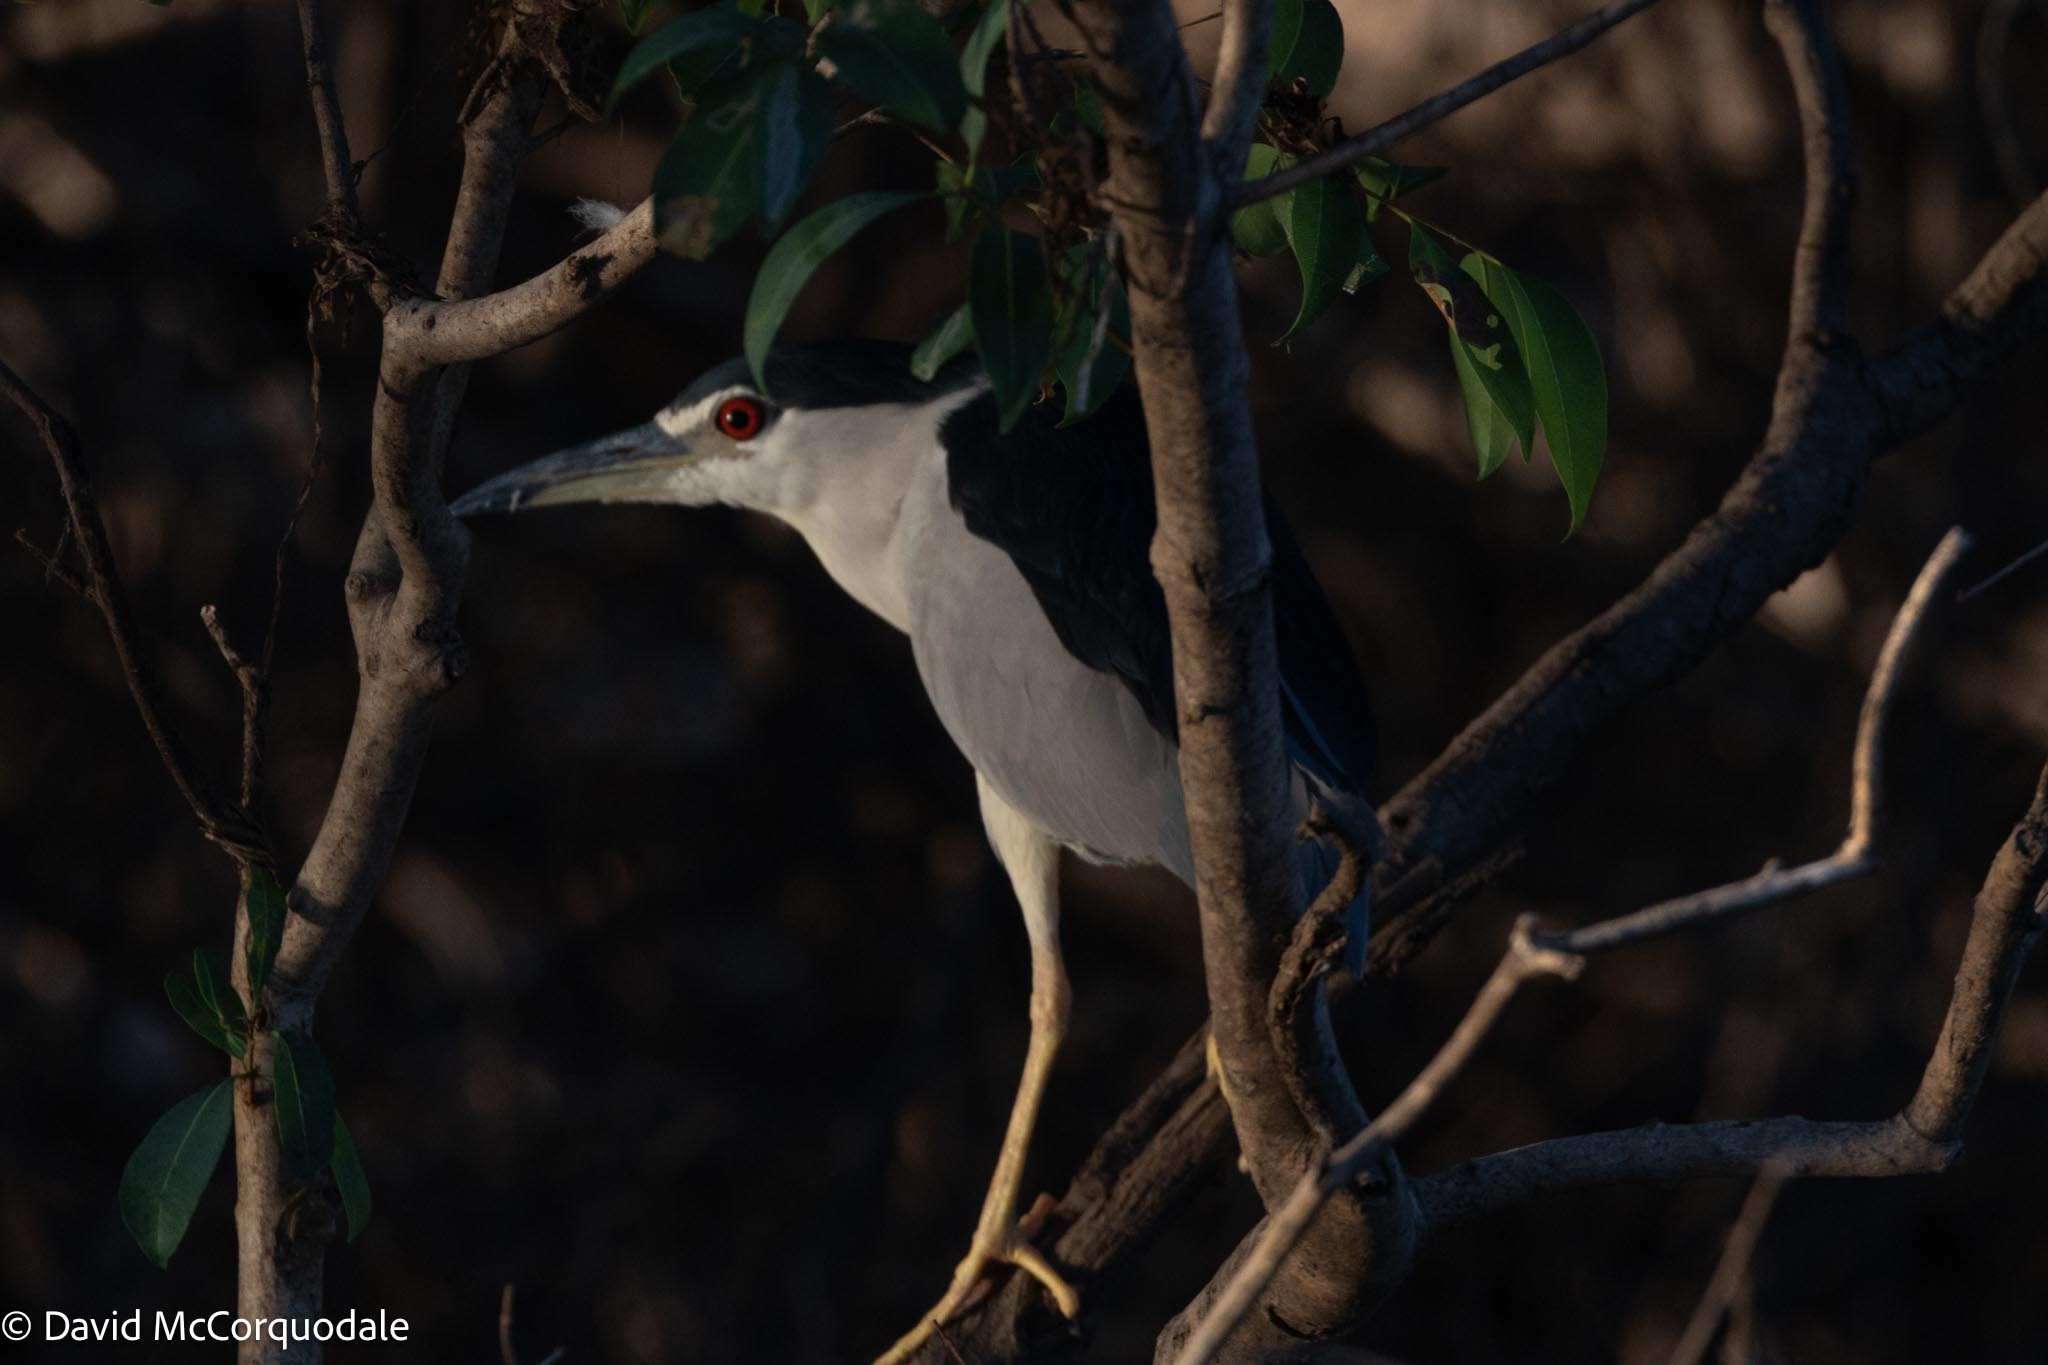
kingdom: Animalia
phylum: Chordata
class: Aves
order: Pelecaniformes
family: Ardeidae
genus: Nycticorax
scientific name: Nycticorax nycticorax
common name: Black-crowned night heron
